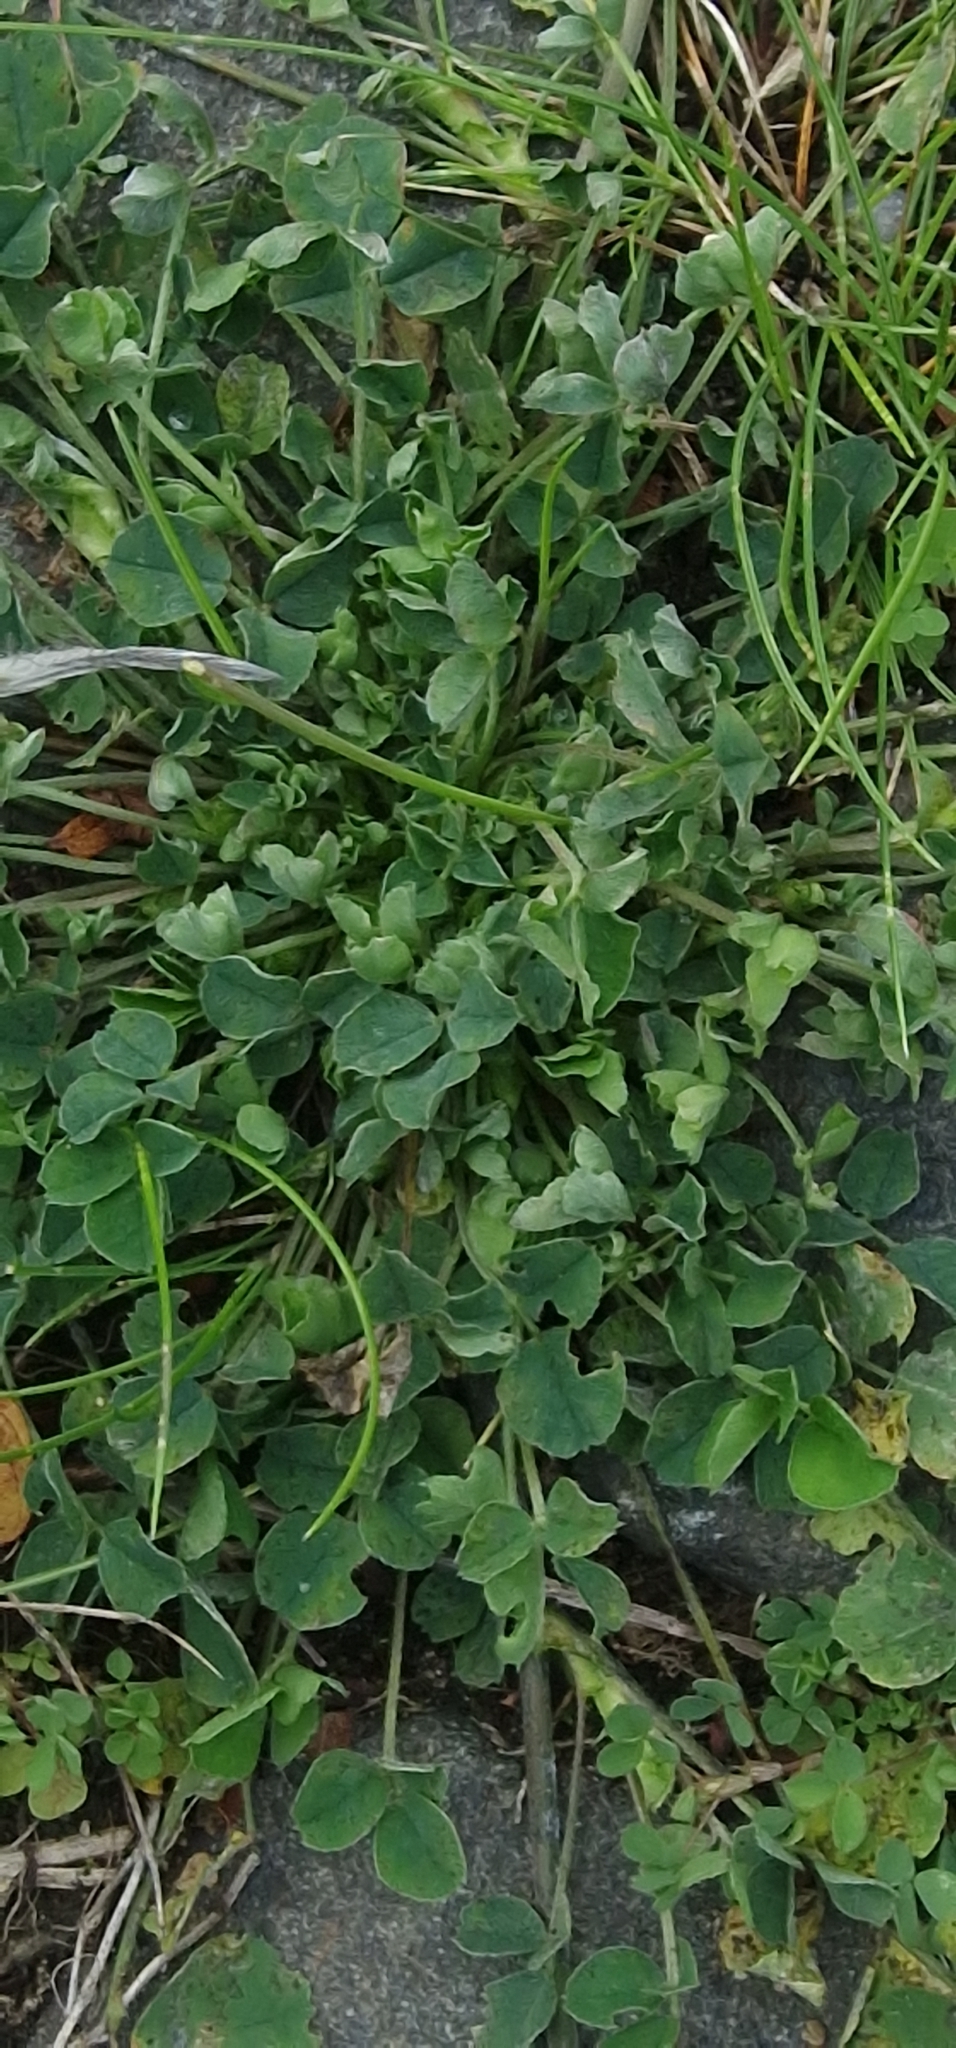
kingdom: Plantae
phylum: Tracheophyta
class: Magnoliopsida
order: Fabales
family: Fabaceae
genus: Medicago
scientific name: Medicago lupulina
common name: Black medick
